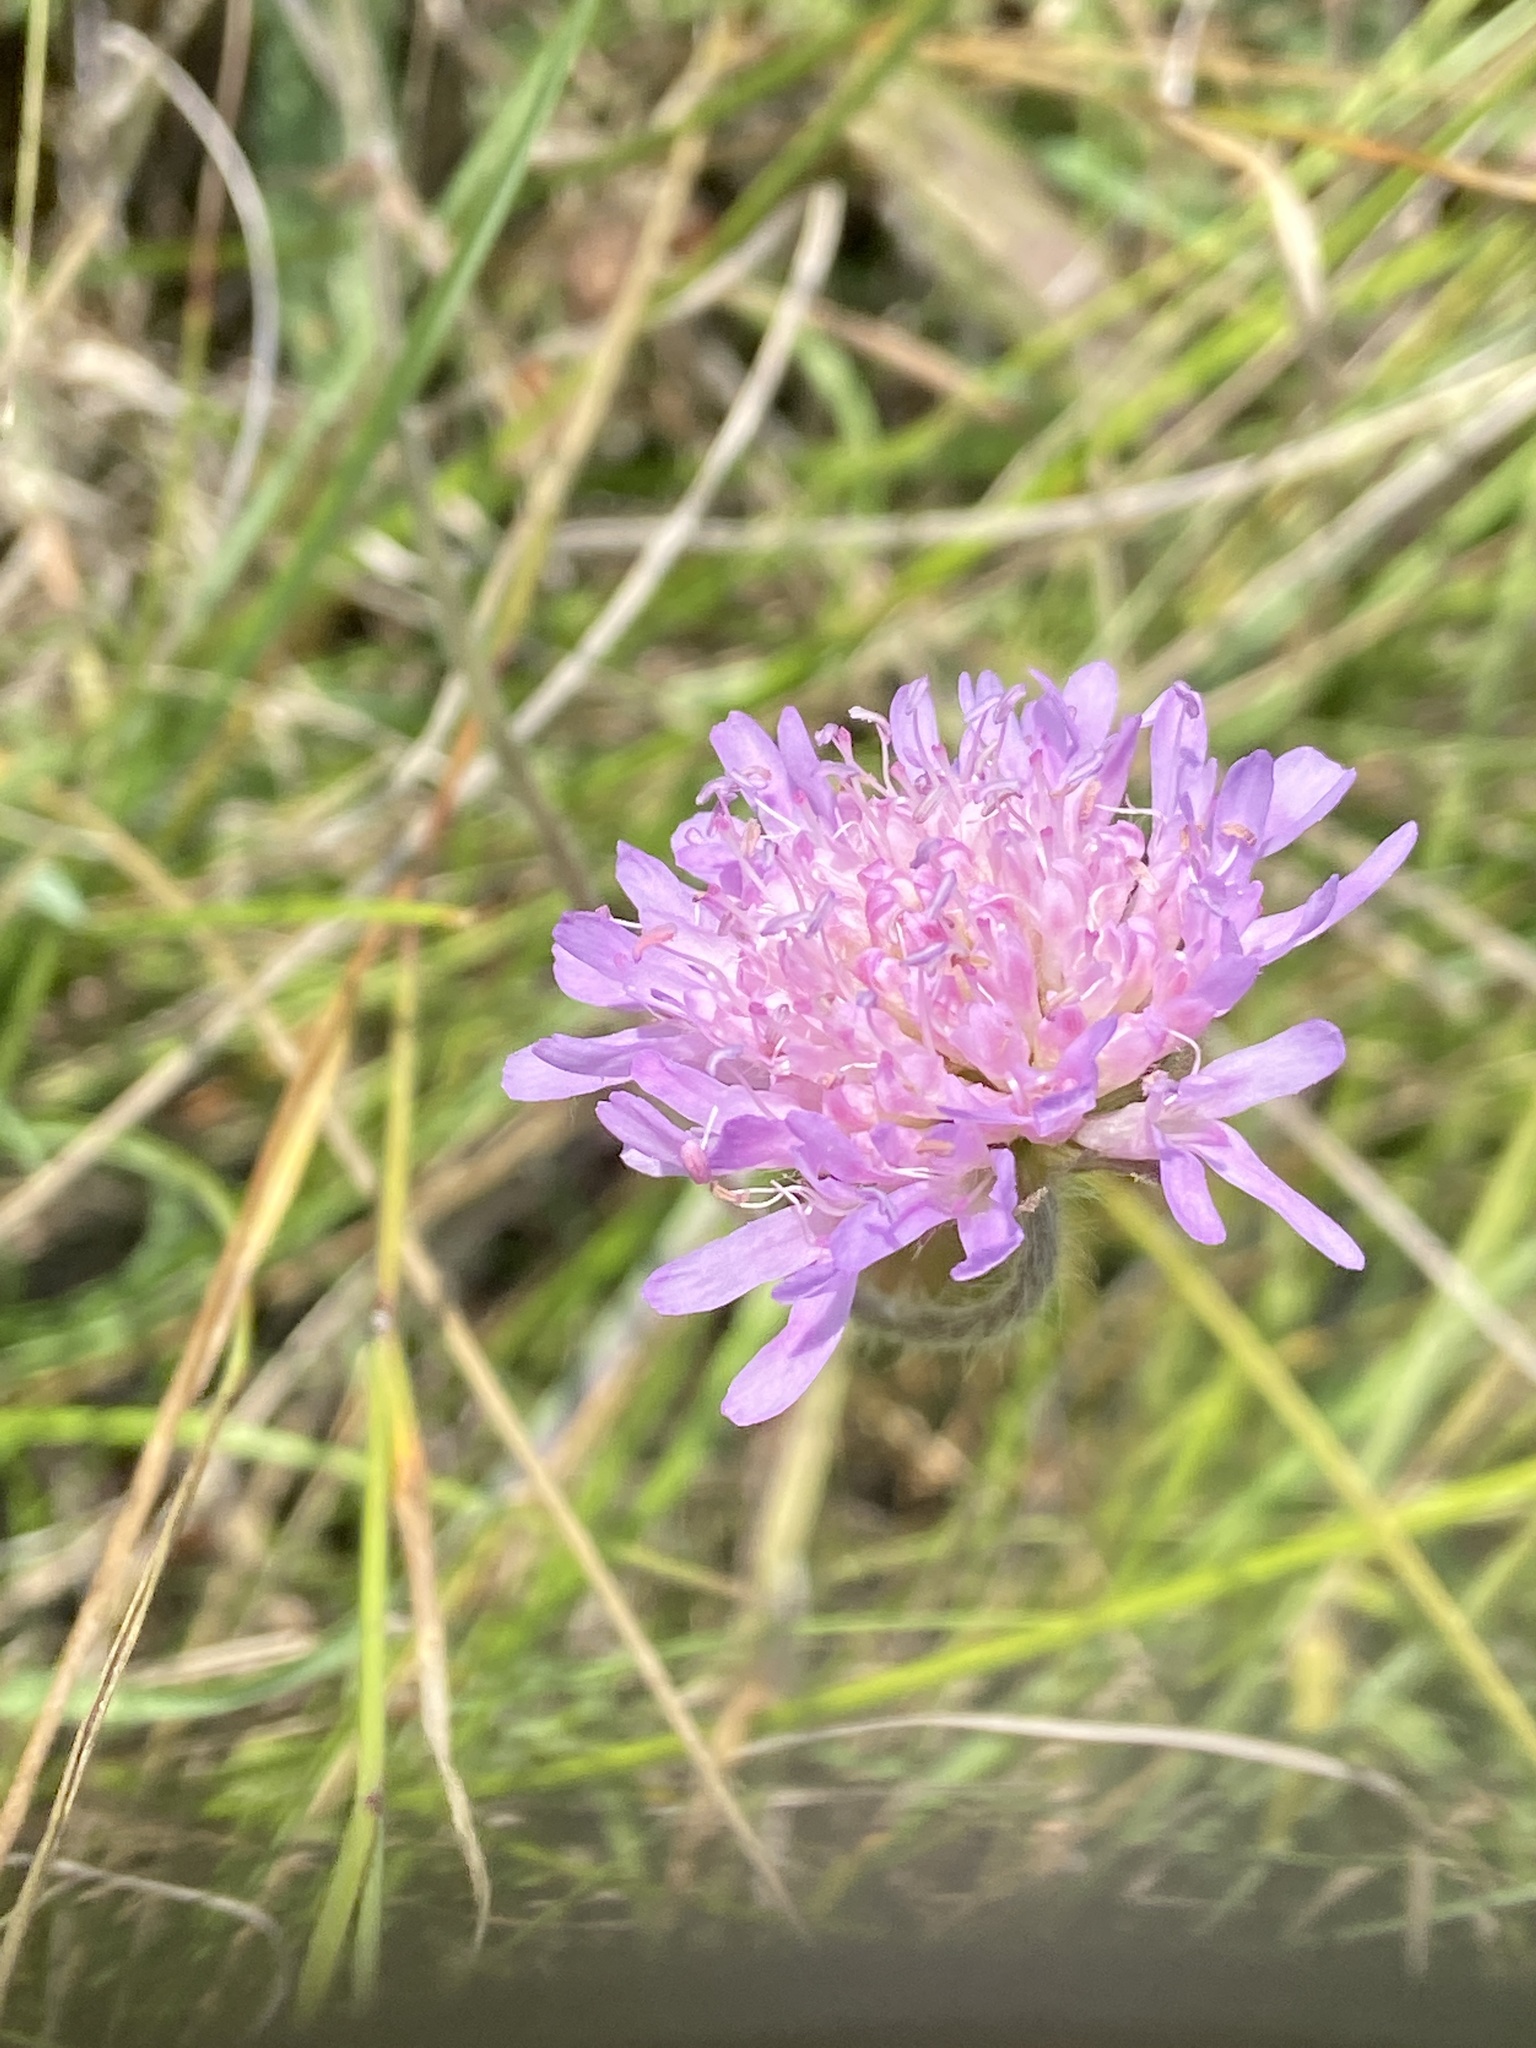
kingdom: Plantae
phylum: Tracheophyta
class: Magnoliopsida
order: Dipsacales
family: Caprifoliaceae
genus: Knautia
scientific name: Knautia arvensis
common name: Field scabiosa
